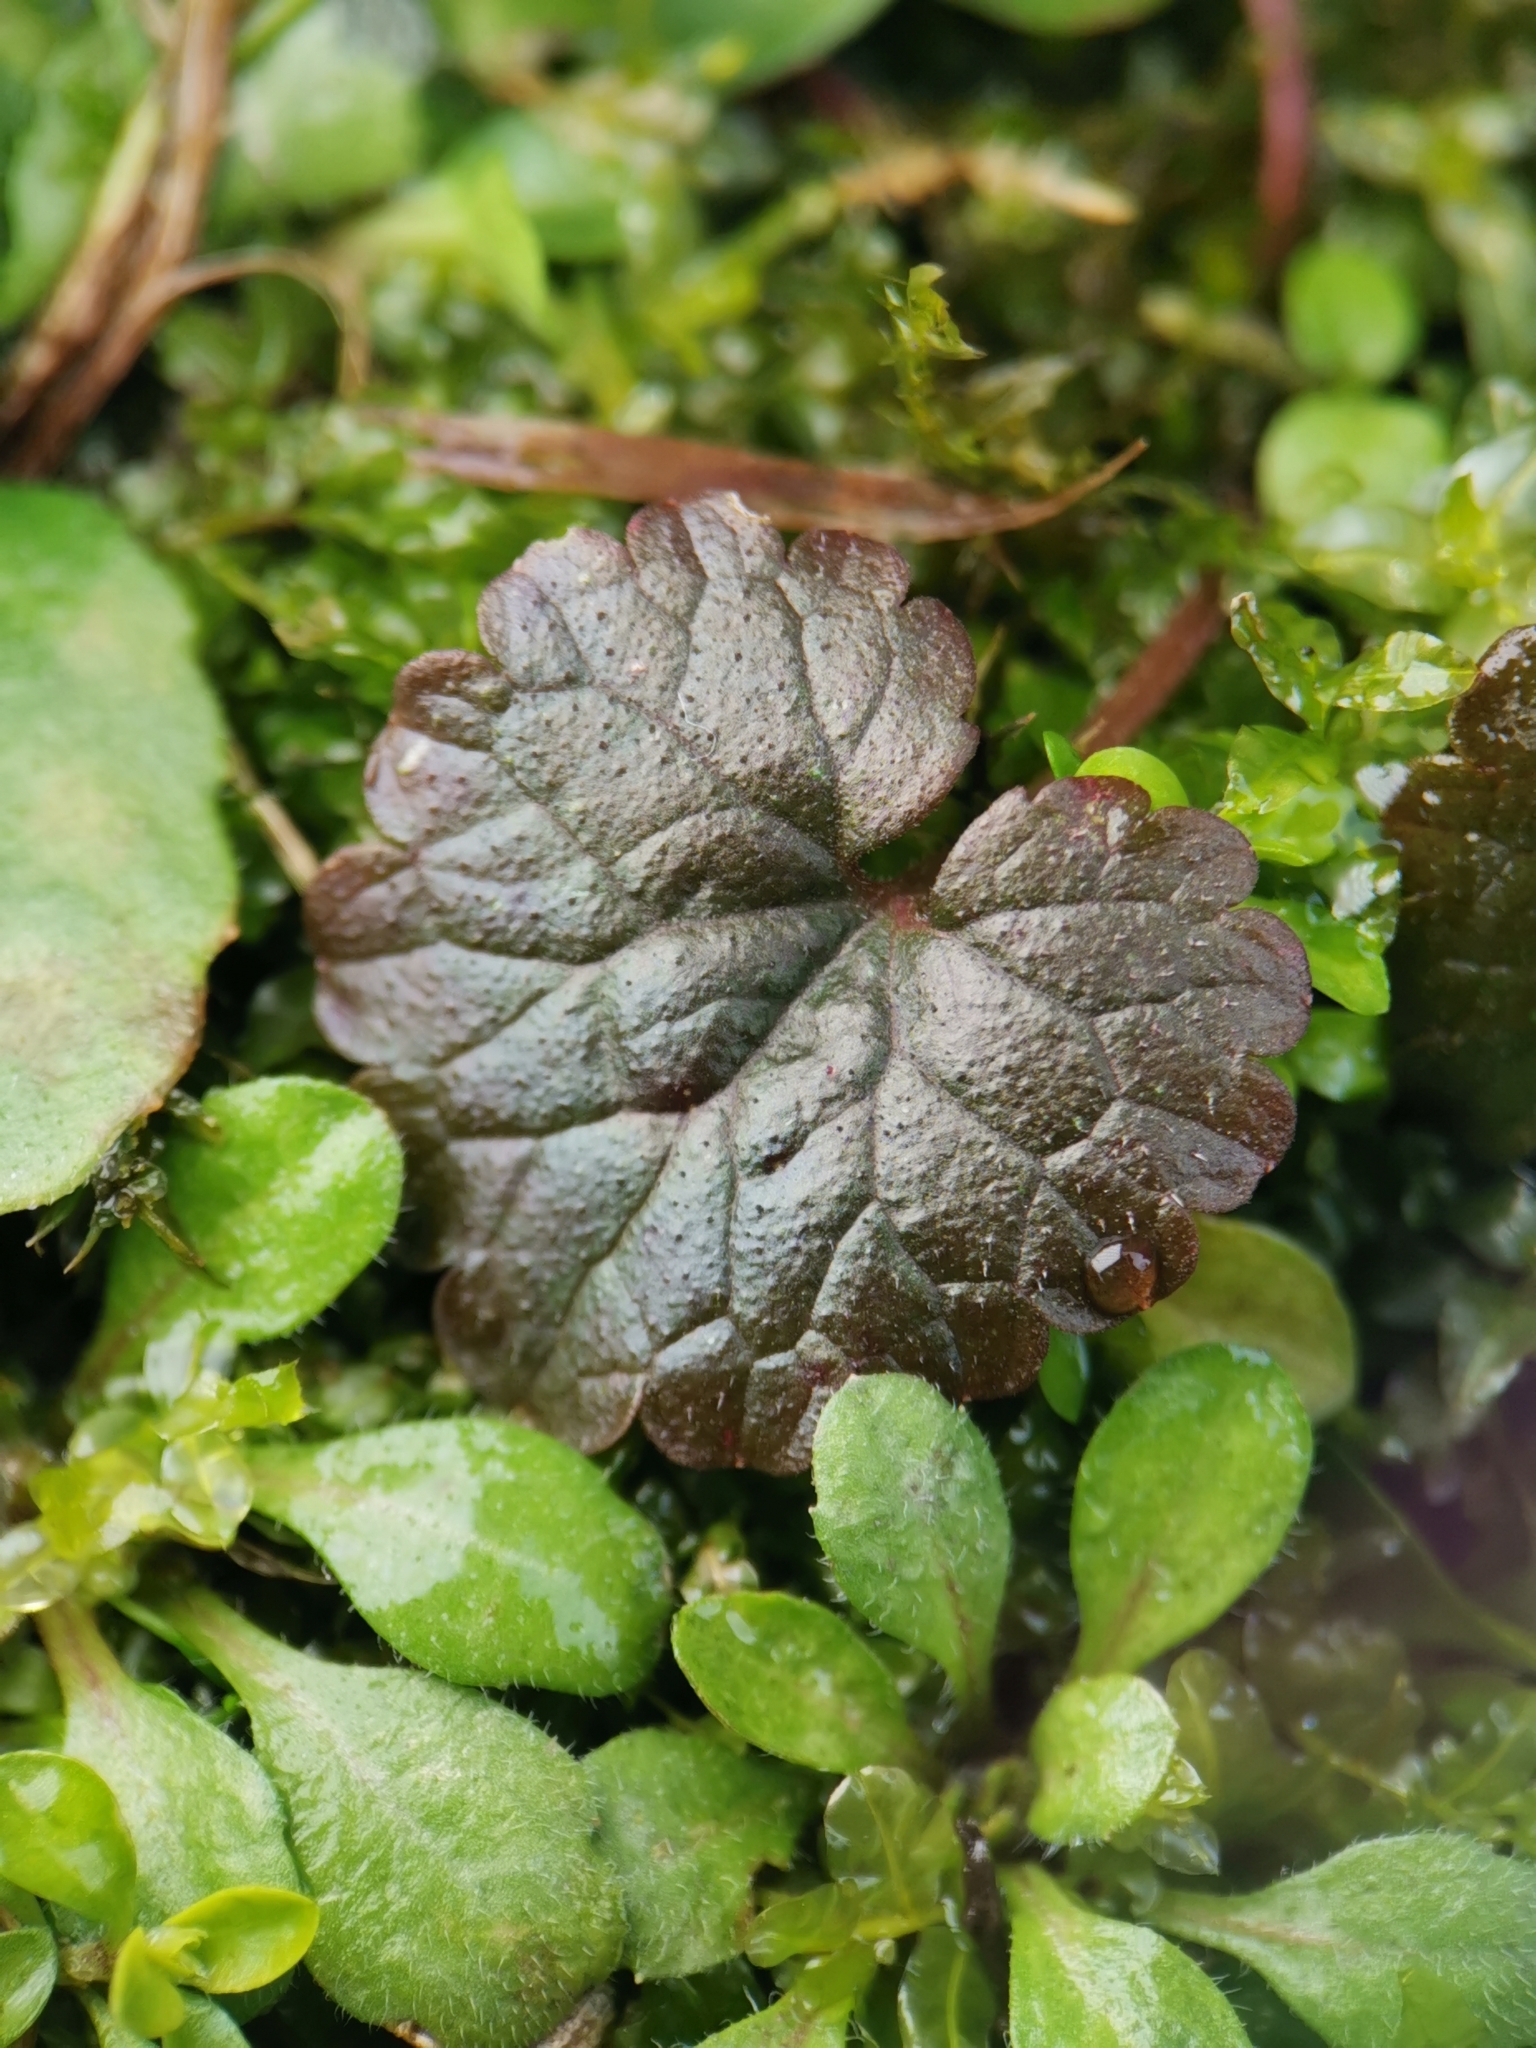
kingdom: Plantae
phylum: Tracheophyta
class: Magnoliopsida
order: Lamiales
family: Lamiaceae
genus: Glechoma
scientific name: Glechoma hederacea
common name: Ground ivy
